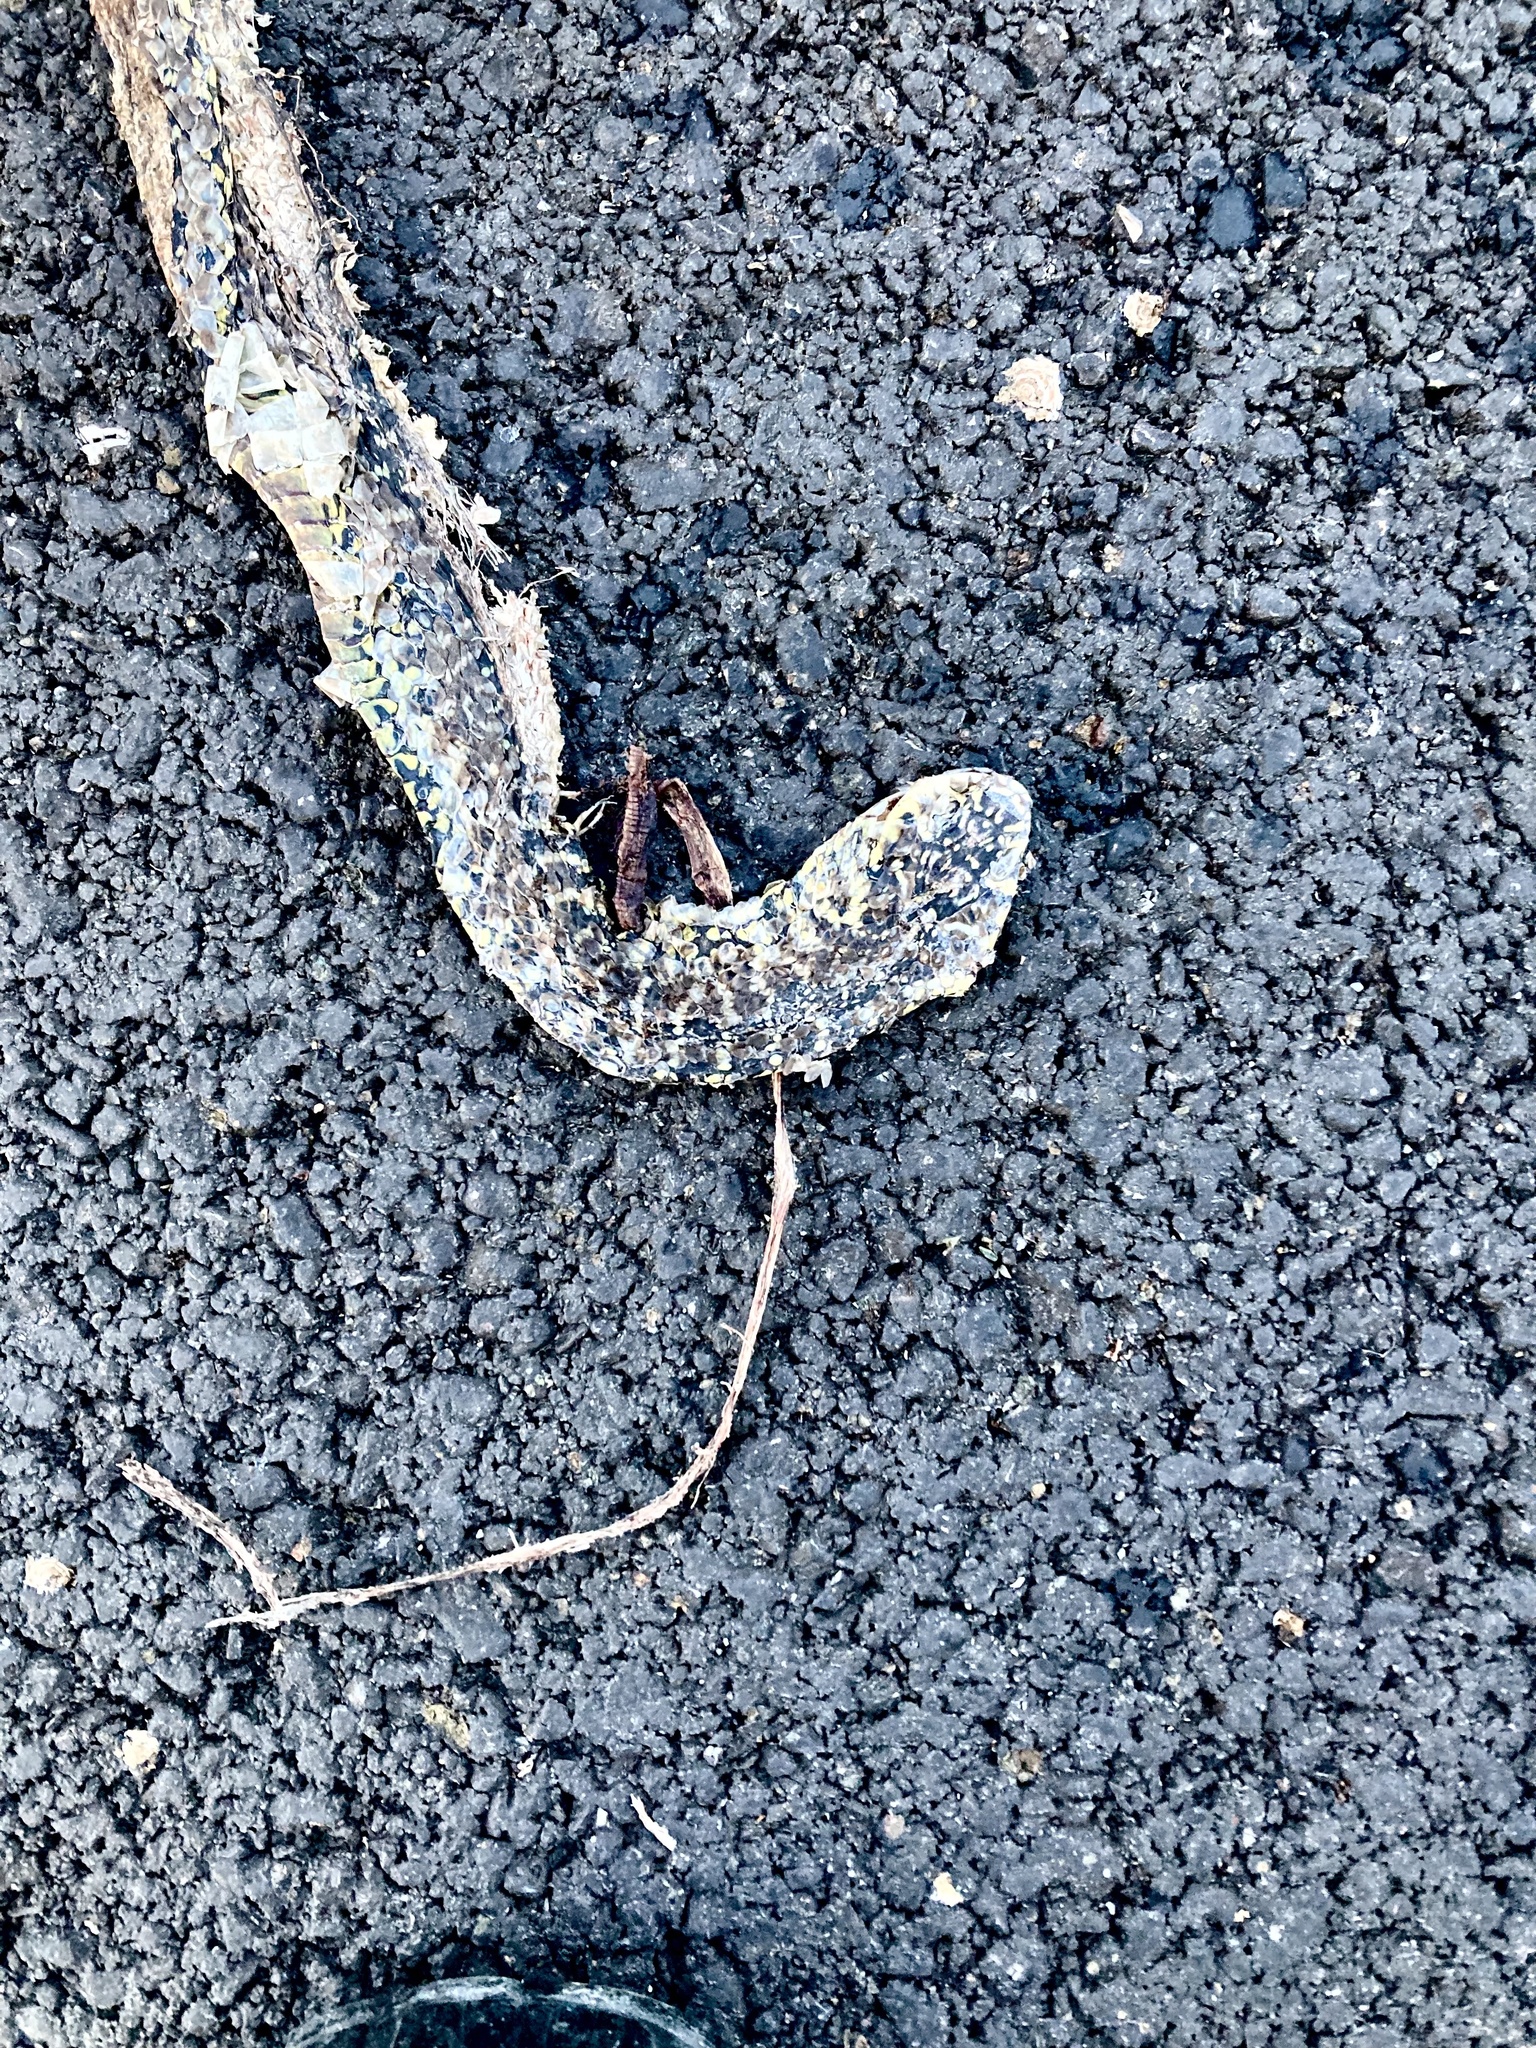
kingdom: Animalia
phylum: Chordata
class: Squamata
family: Colubridae
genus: Hierophis
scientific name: Hierophis viridiflavus
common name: Green whip snake
